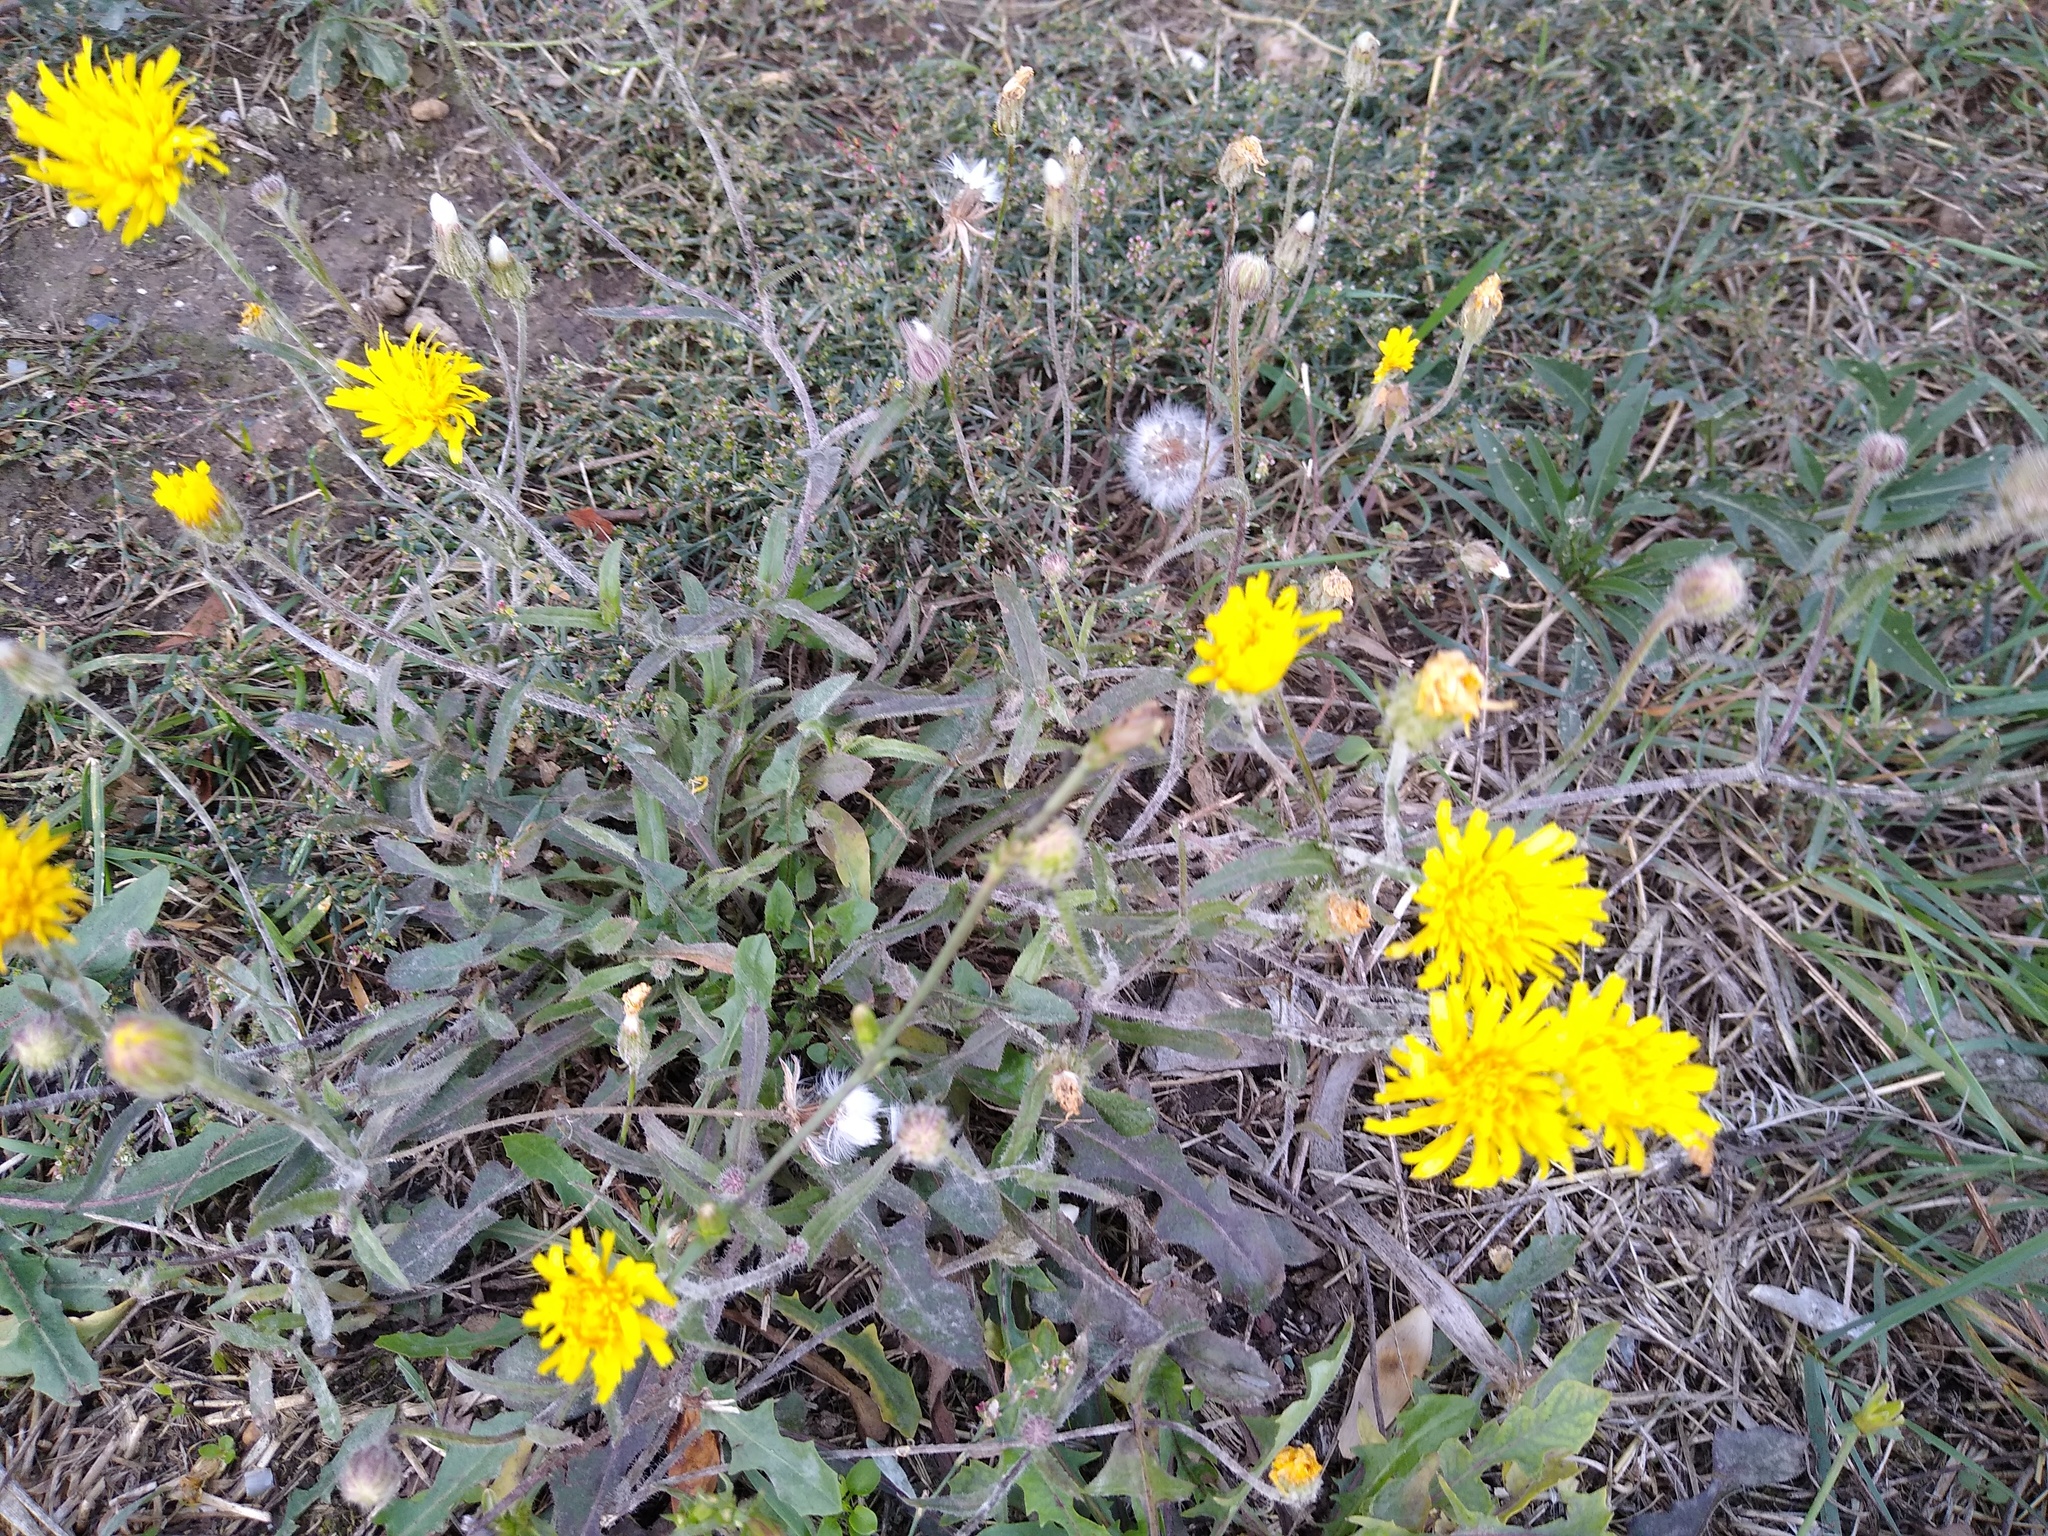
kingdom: Plantae
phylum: Tracheophyta
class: Magnoliopsida
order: Asterales
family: Asteraceae
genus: Crepis
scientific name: Crepis foetida
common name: Stinking hawk's-beard
